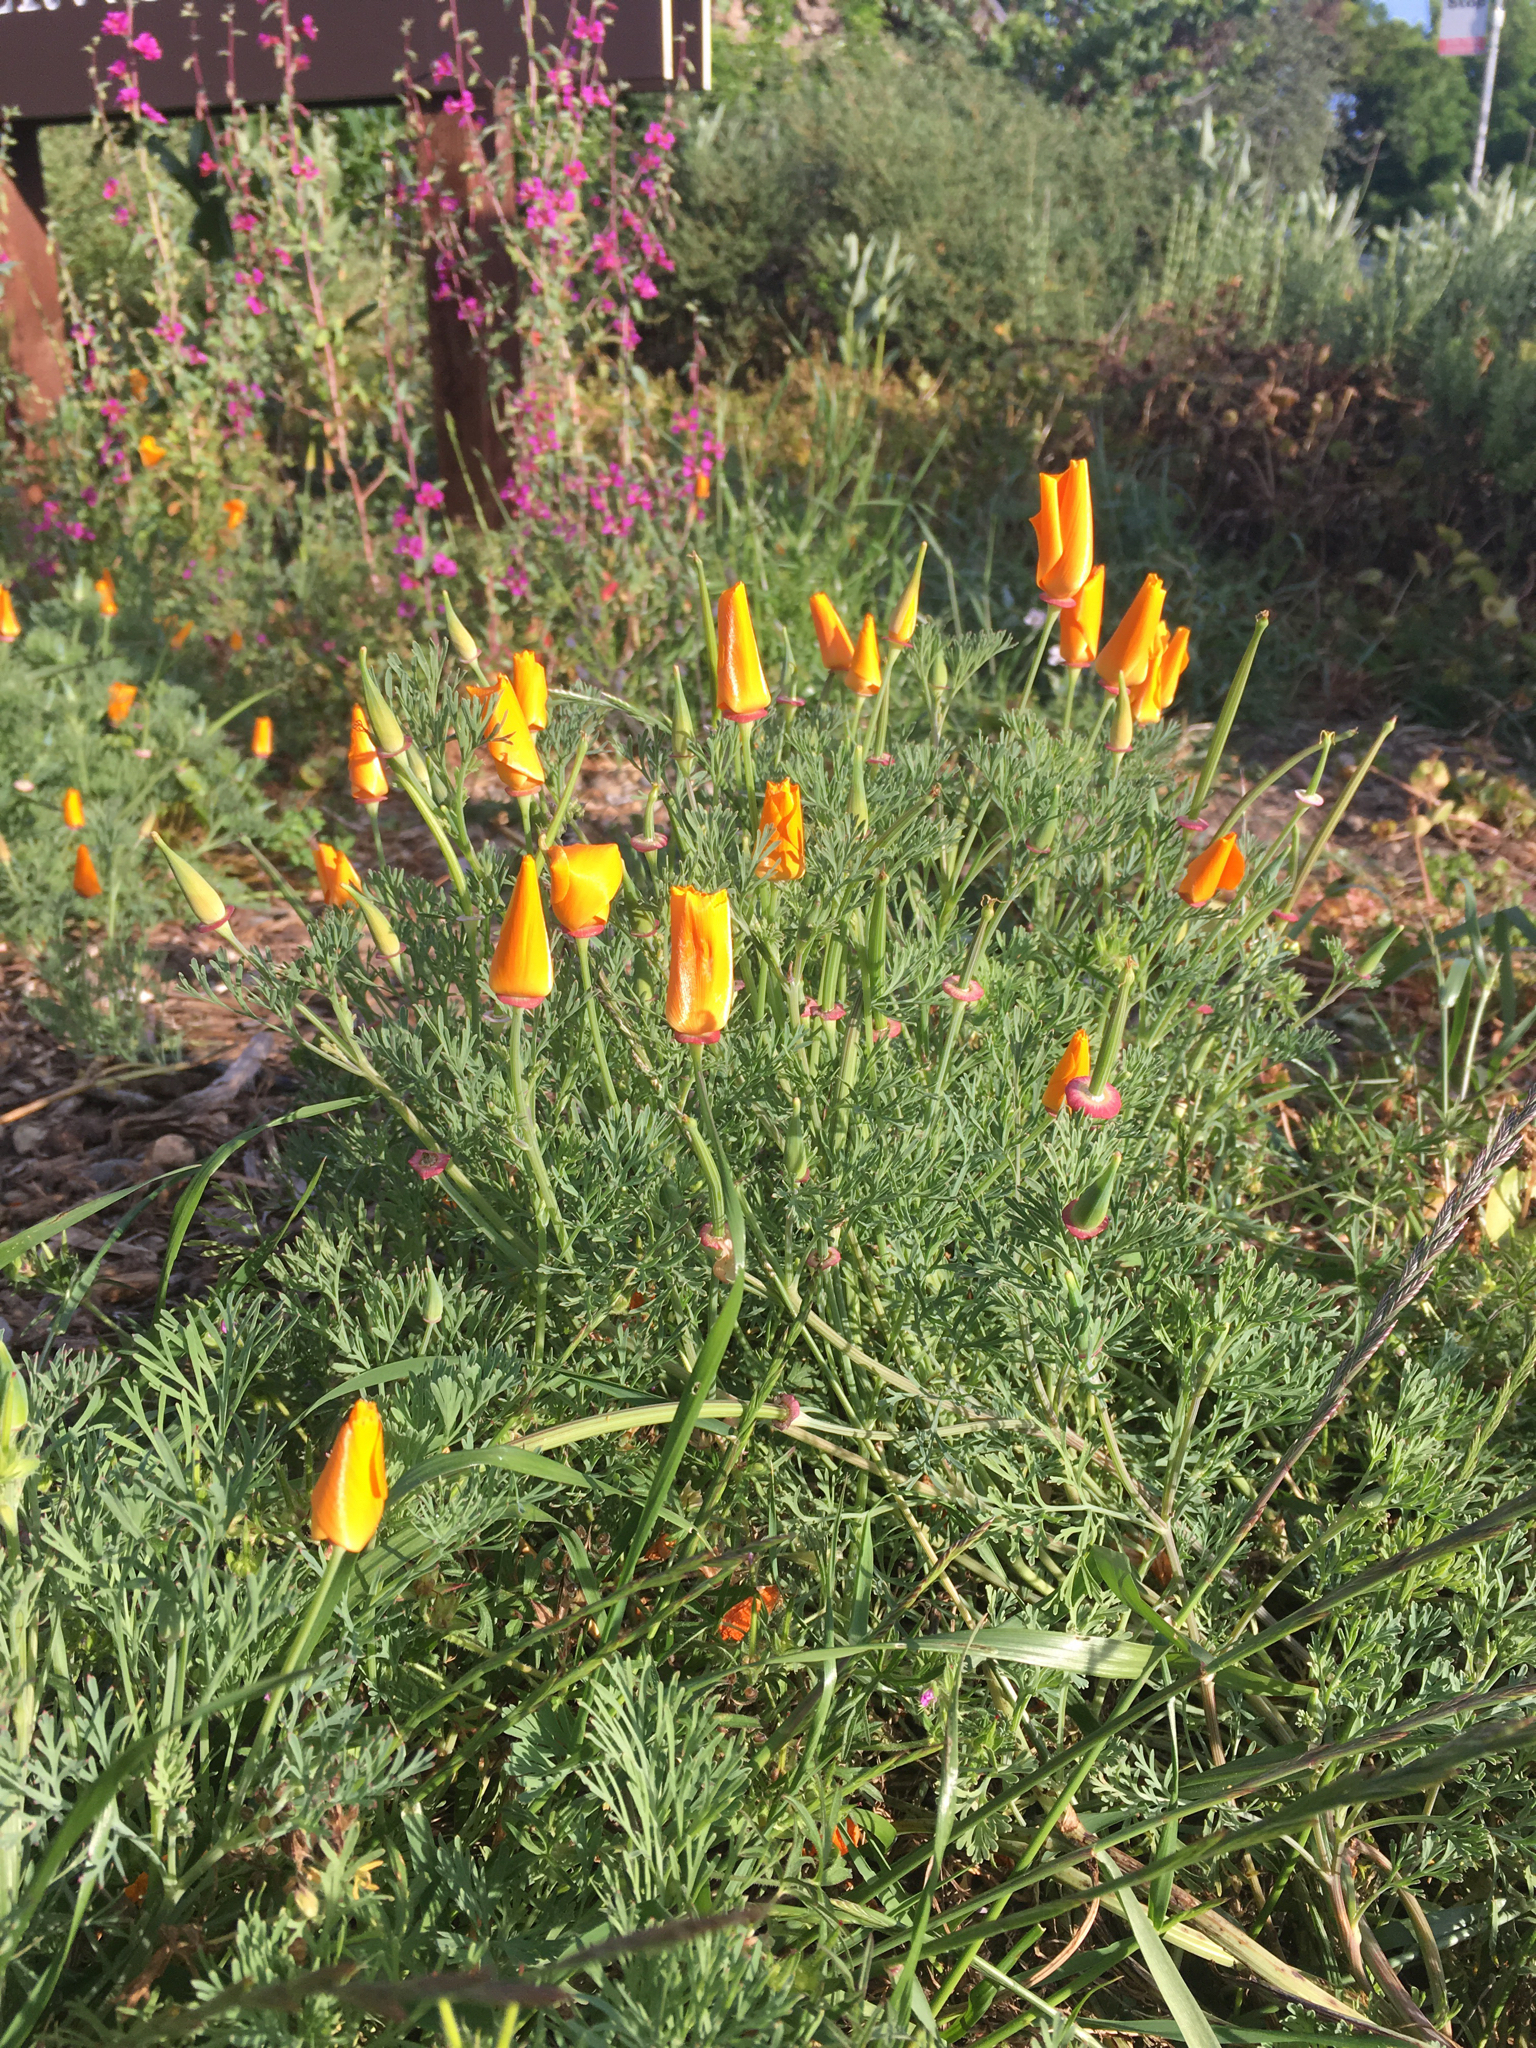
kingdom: Plantae
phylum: Tracheophyta
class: Magnoliopsida
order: Ranunculales
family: Papaveraceae
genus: Eschscholzia
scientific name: Eschscholzia californica
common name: California poppy
